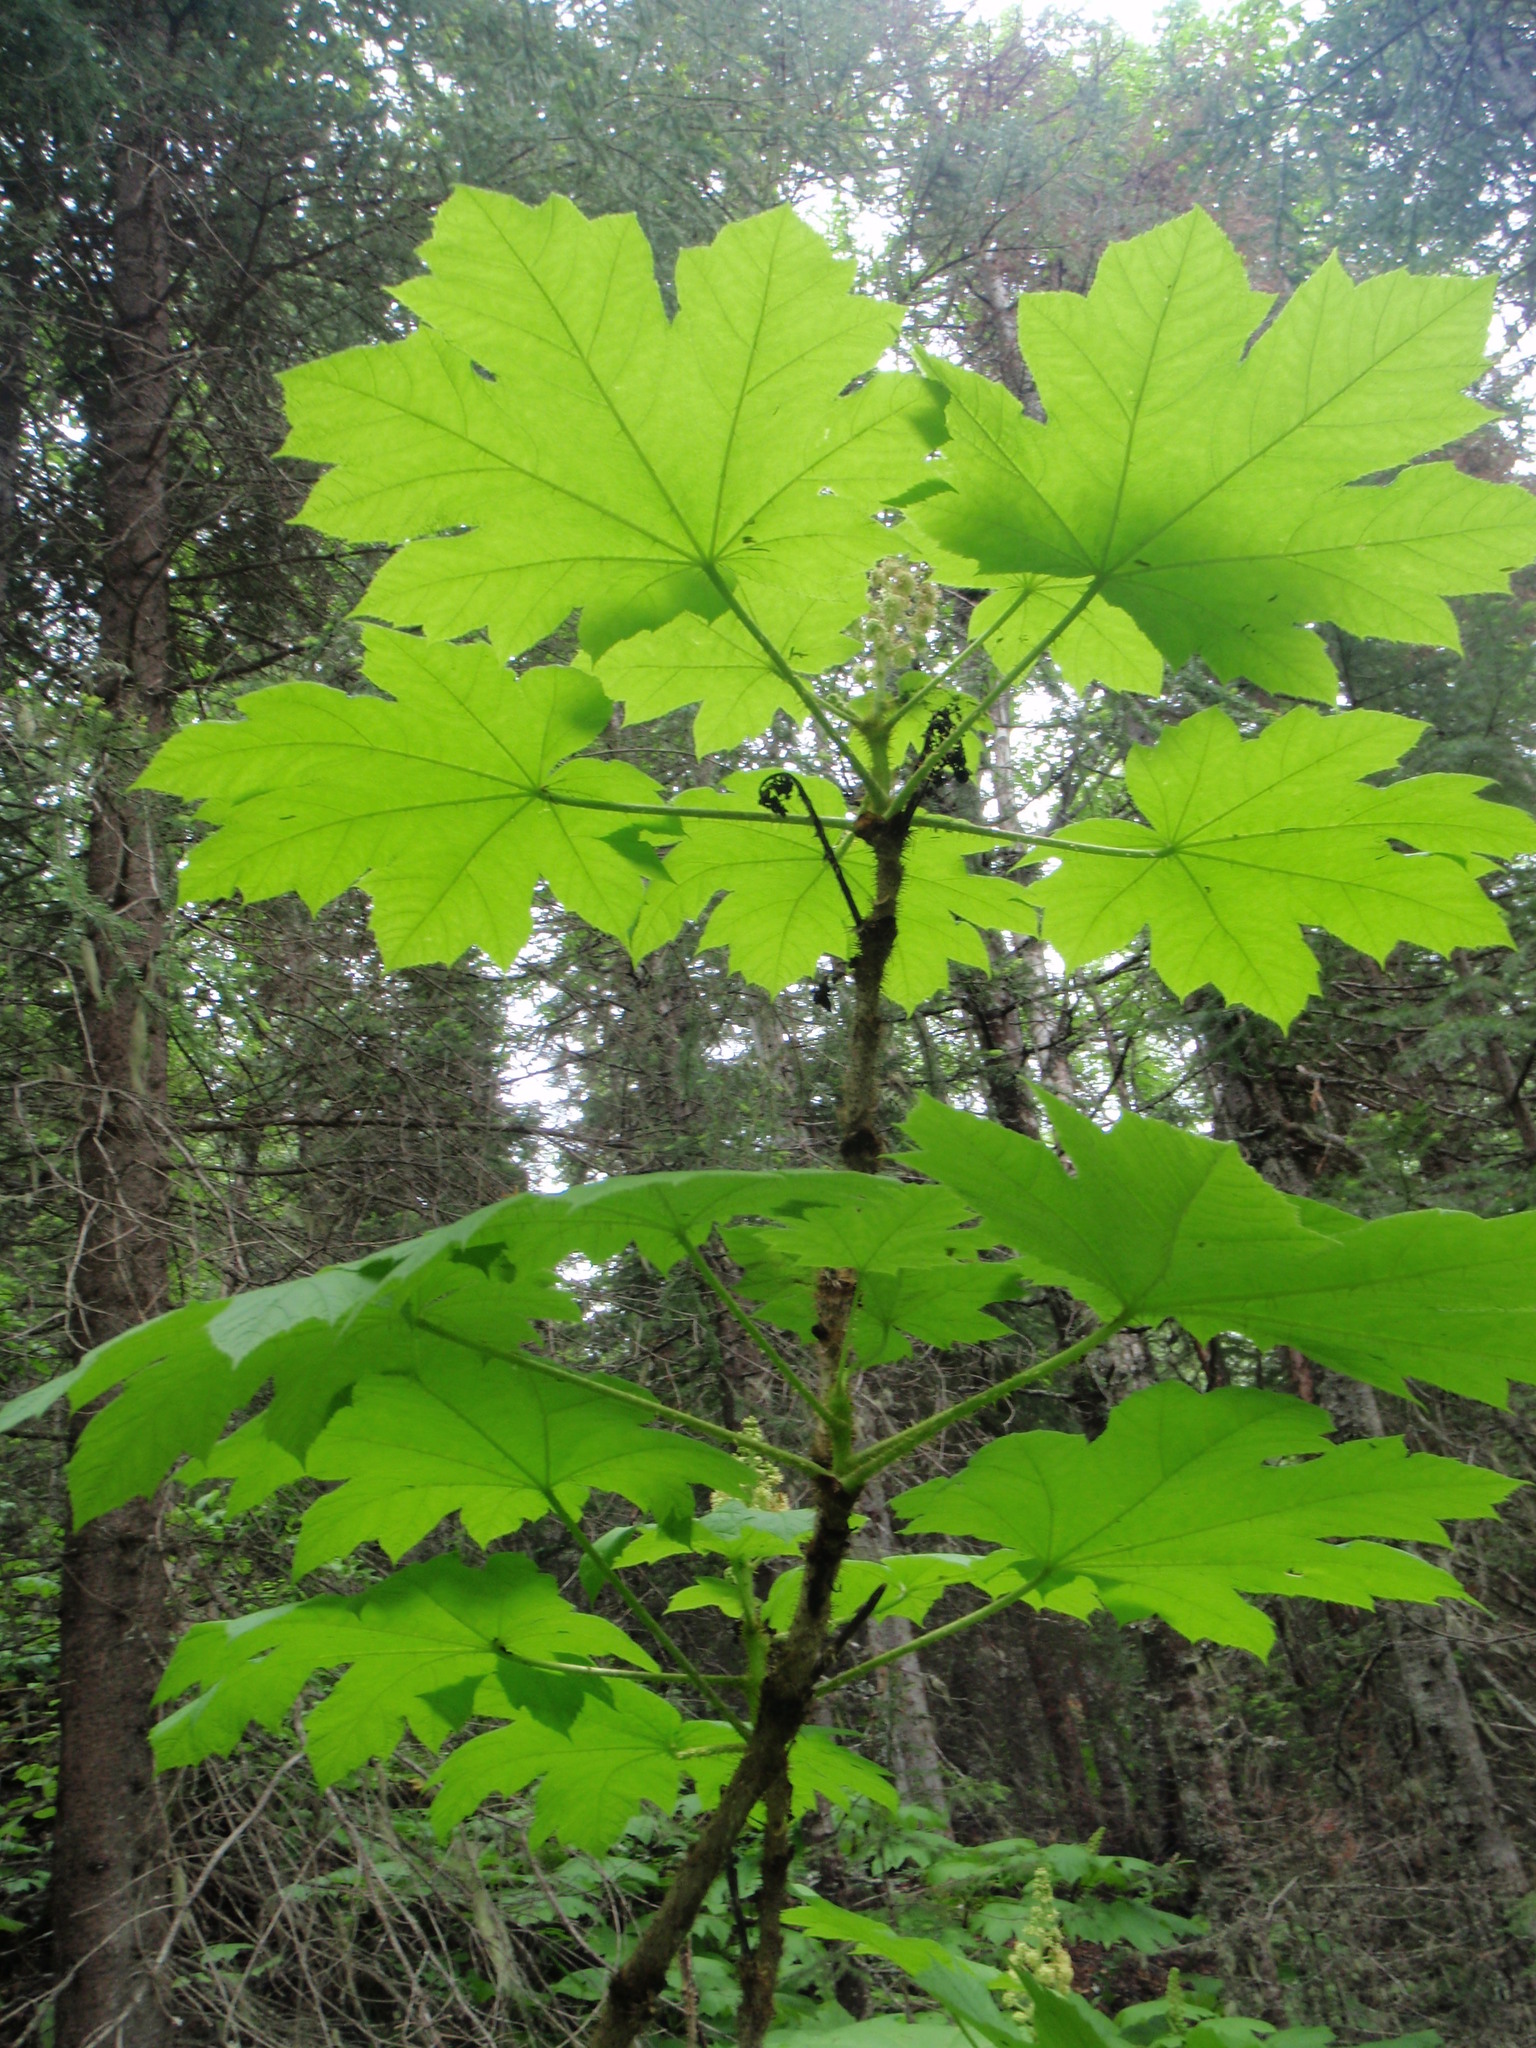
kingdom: Plantae
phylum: Tracheophyta
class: Magnoliopsida
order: Apiales
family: Araliaceae
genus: Oplopanax
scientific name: Oplopanax horridus
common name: Devil's walking-stick
